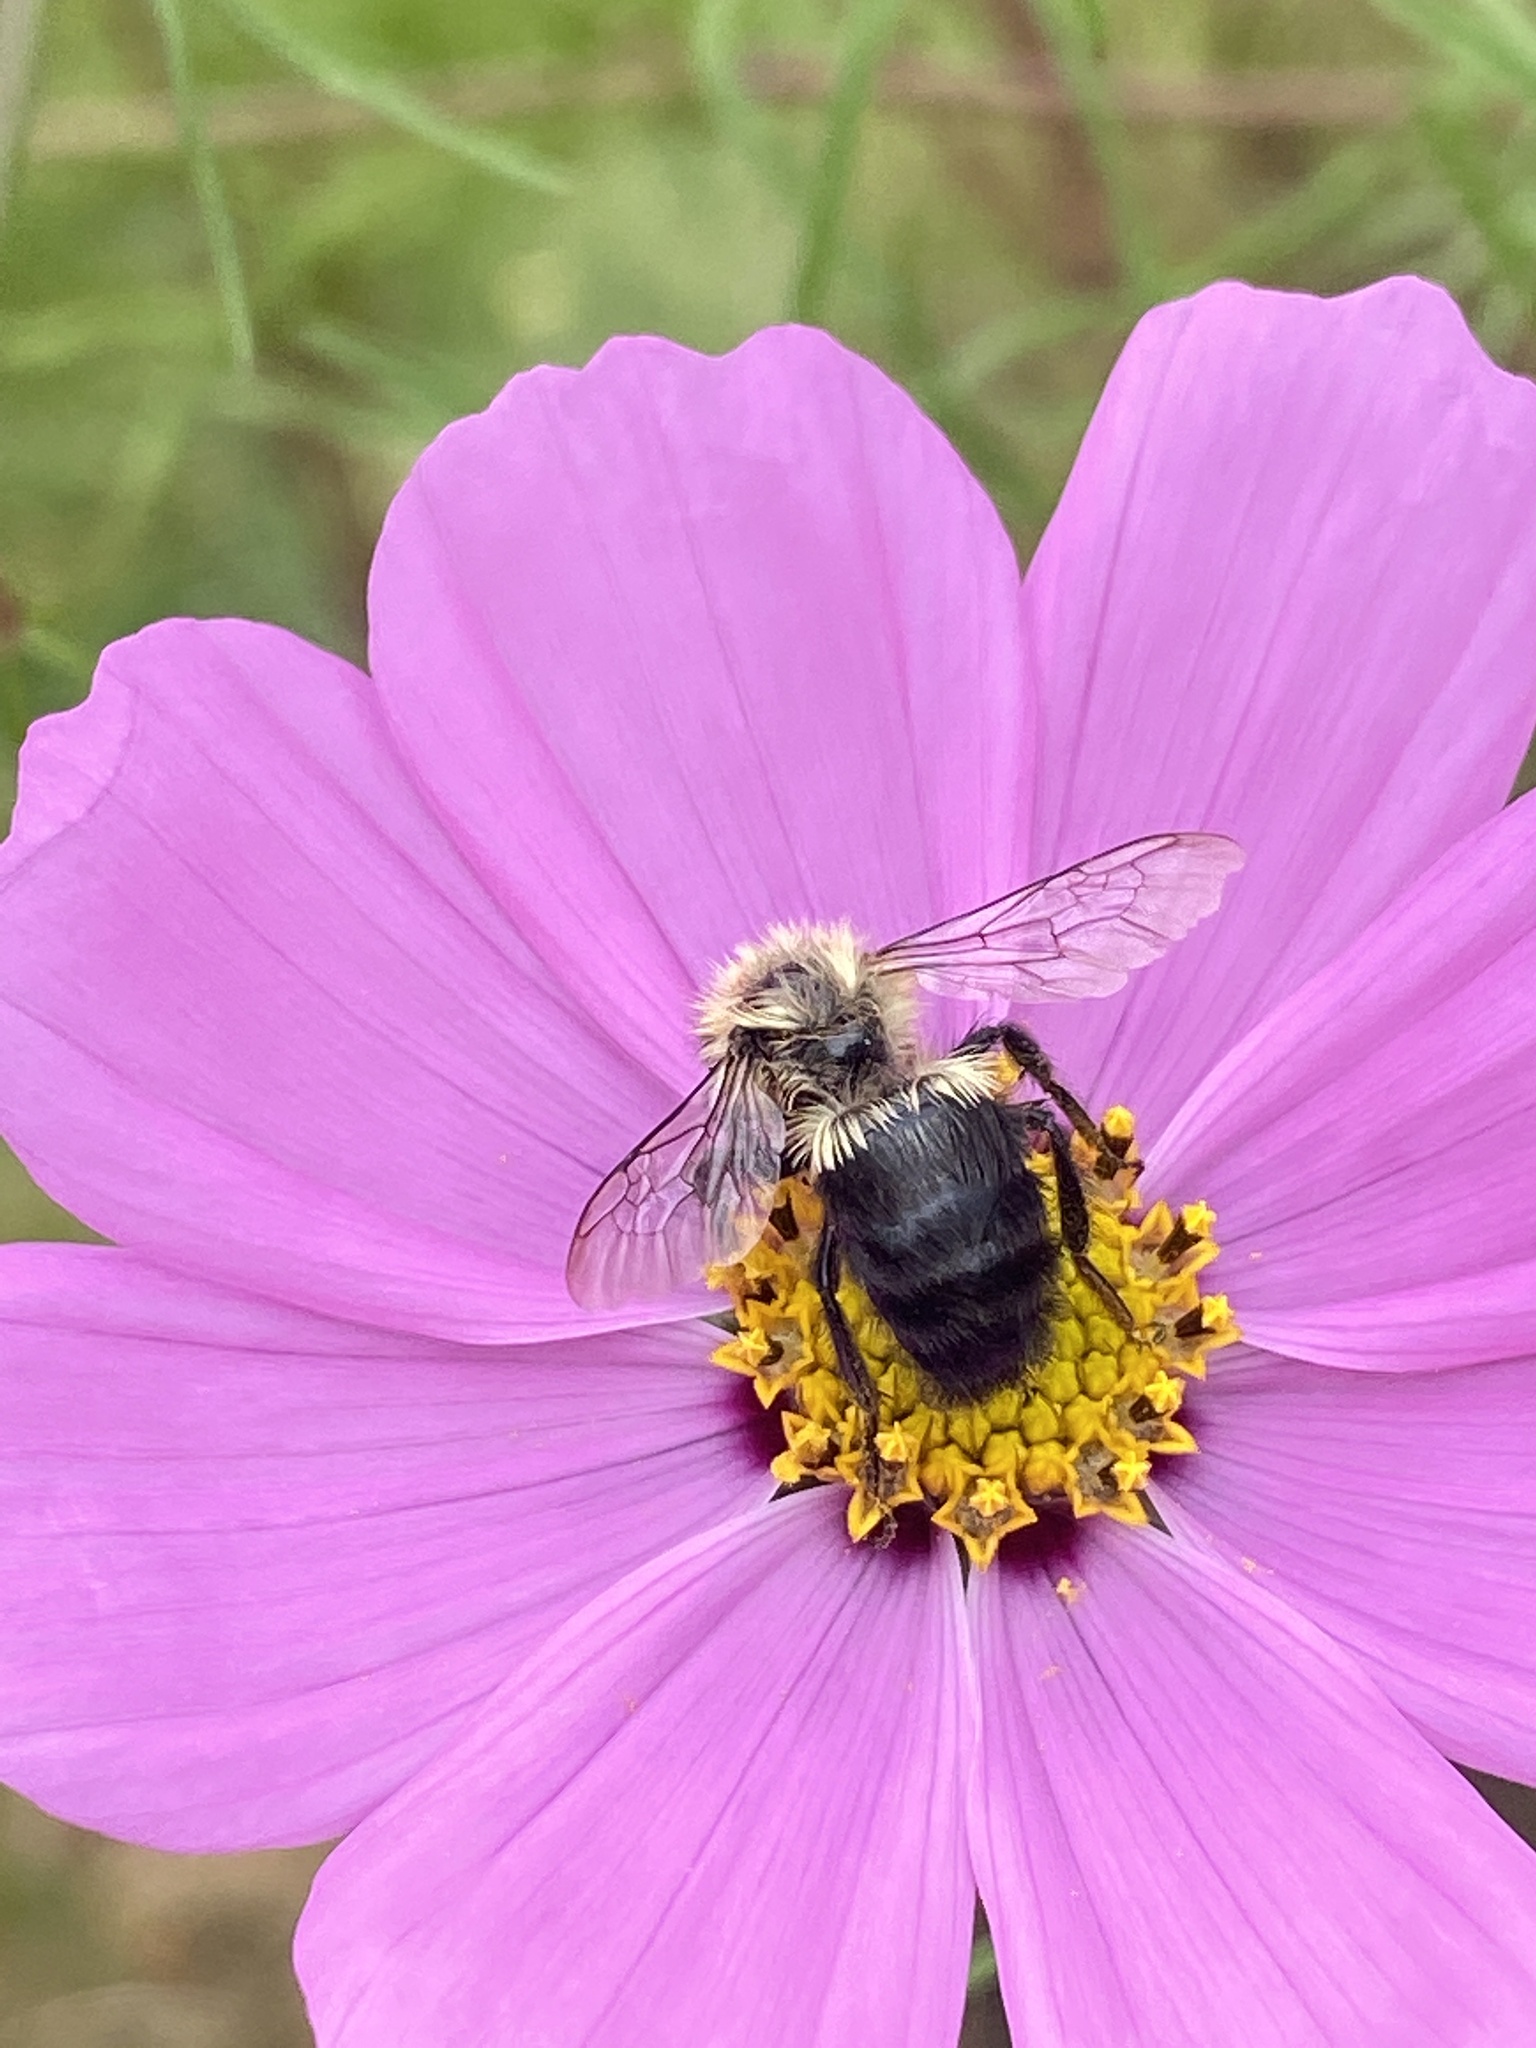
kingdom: Animalia
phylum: Arthropoda
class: Insecta
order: Hymenoptera
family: Apidae
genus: Bombus
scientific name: Bombus impatiens
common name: Common eastern bumble bee
